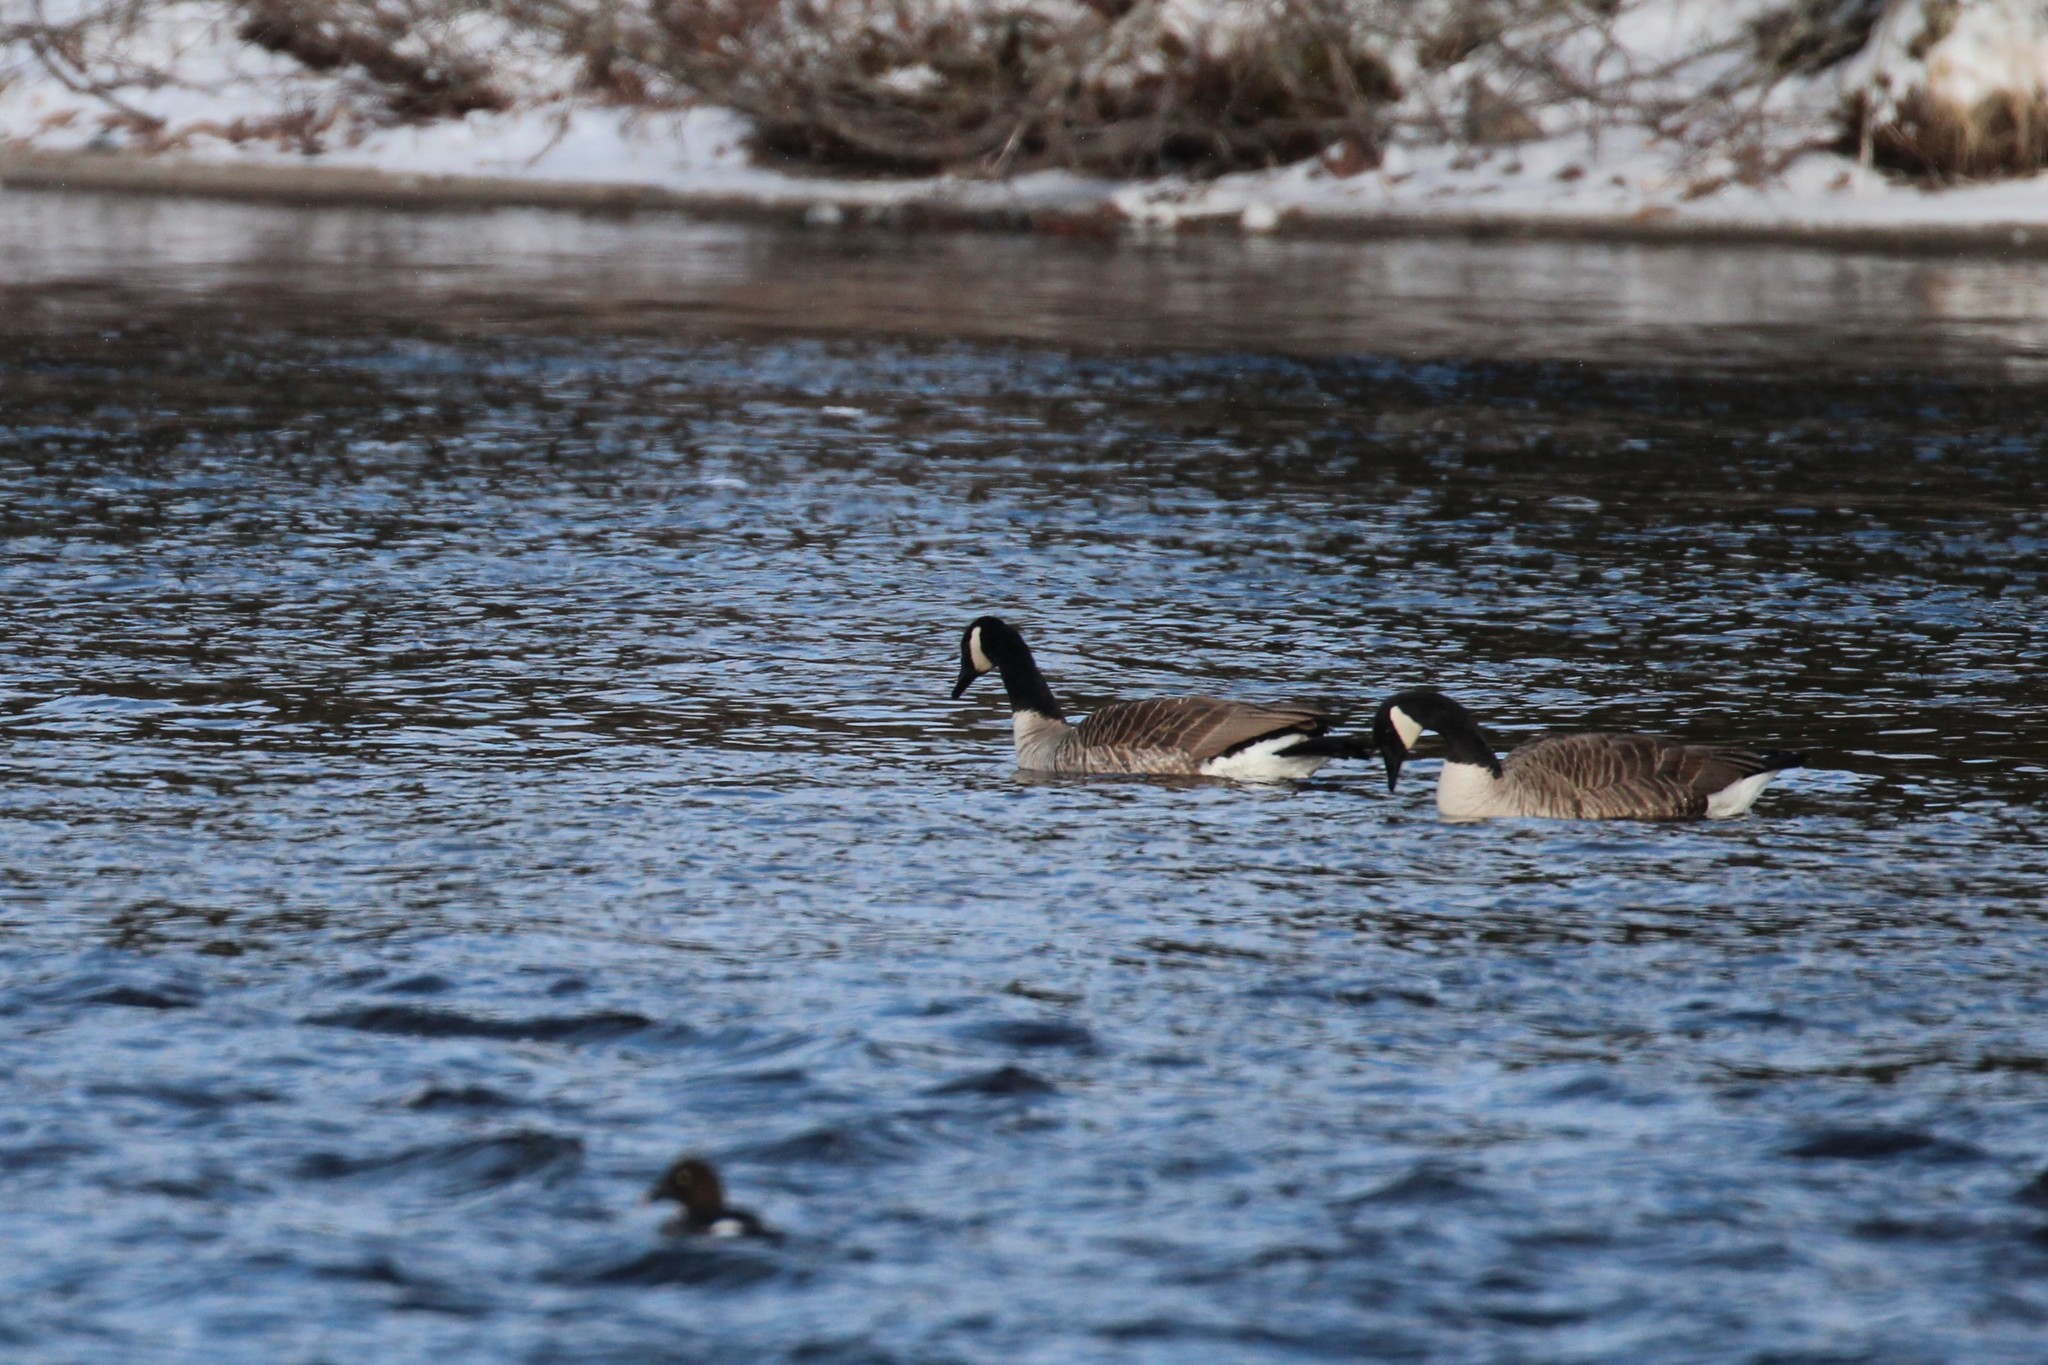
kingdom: Animalia
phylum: Chordata
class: Aves
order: Anseriformes
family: Anatidae
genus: Branta
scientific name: Branta canadensis
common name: Canada goose
